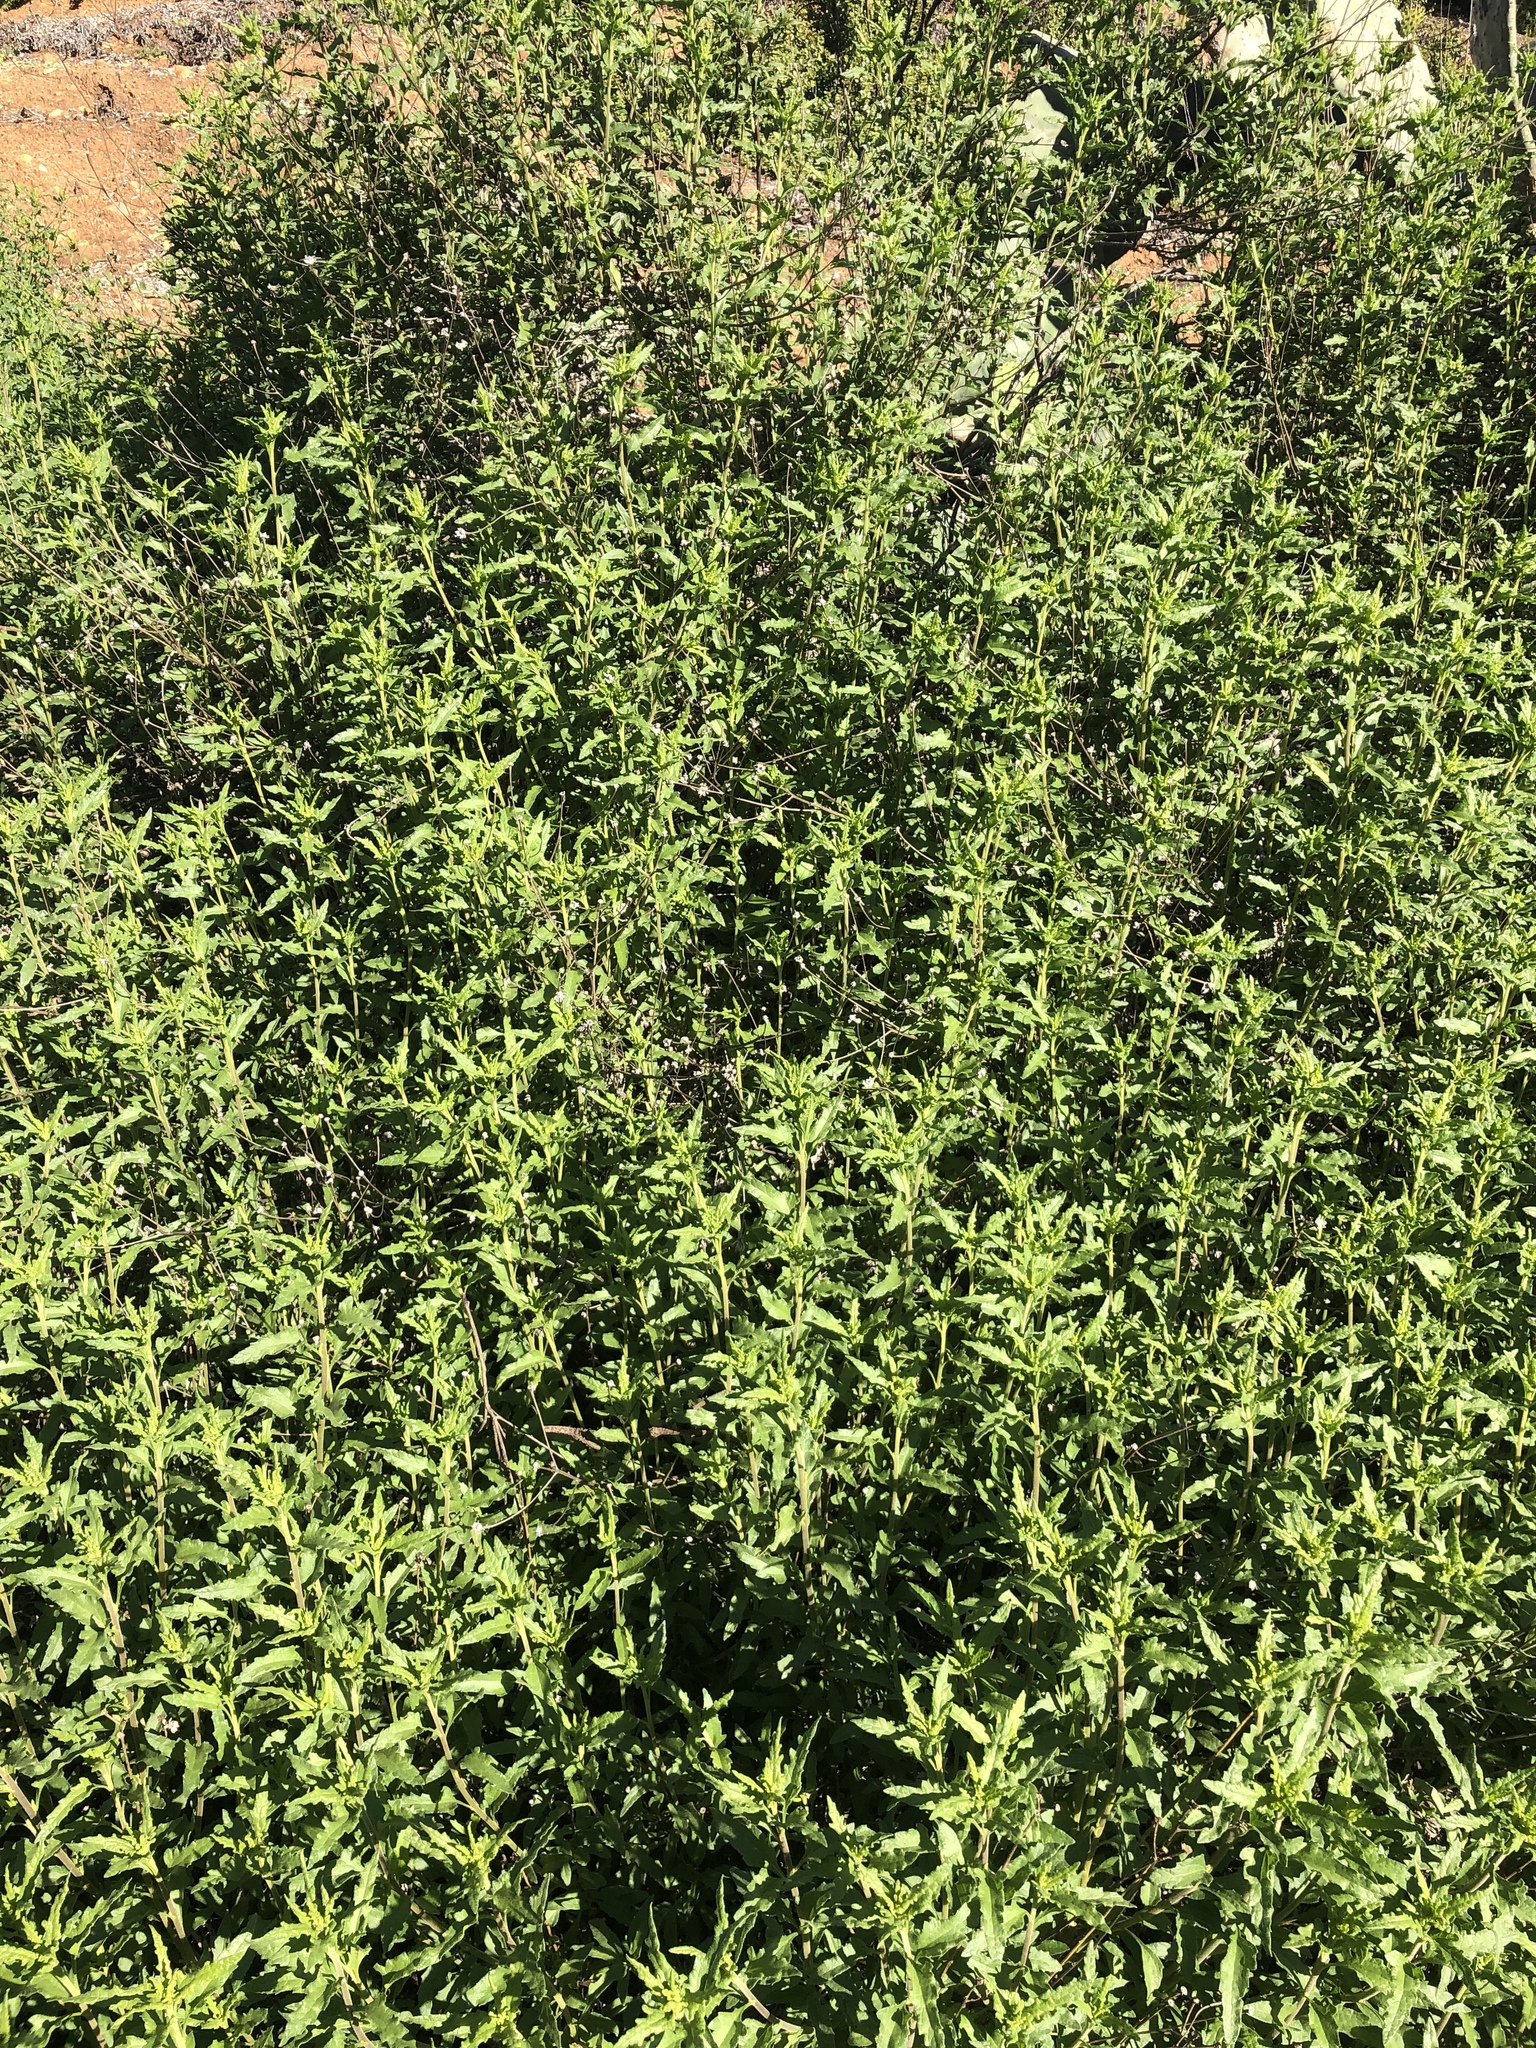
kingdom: Plantae
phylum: Tracheophyta
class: Magnoliopsida
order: Asterales
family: Asteraceae
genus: Bahiopsis
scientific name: Bahiopsis laciniata
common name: San diego county viguiera
